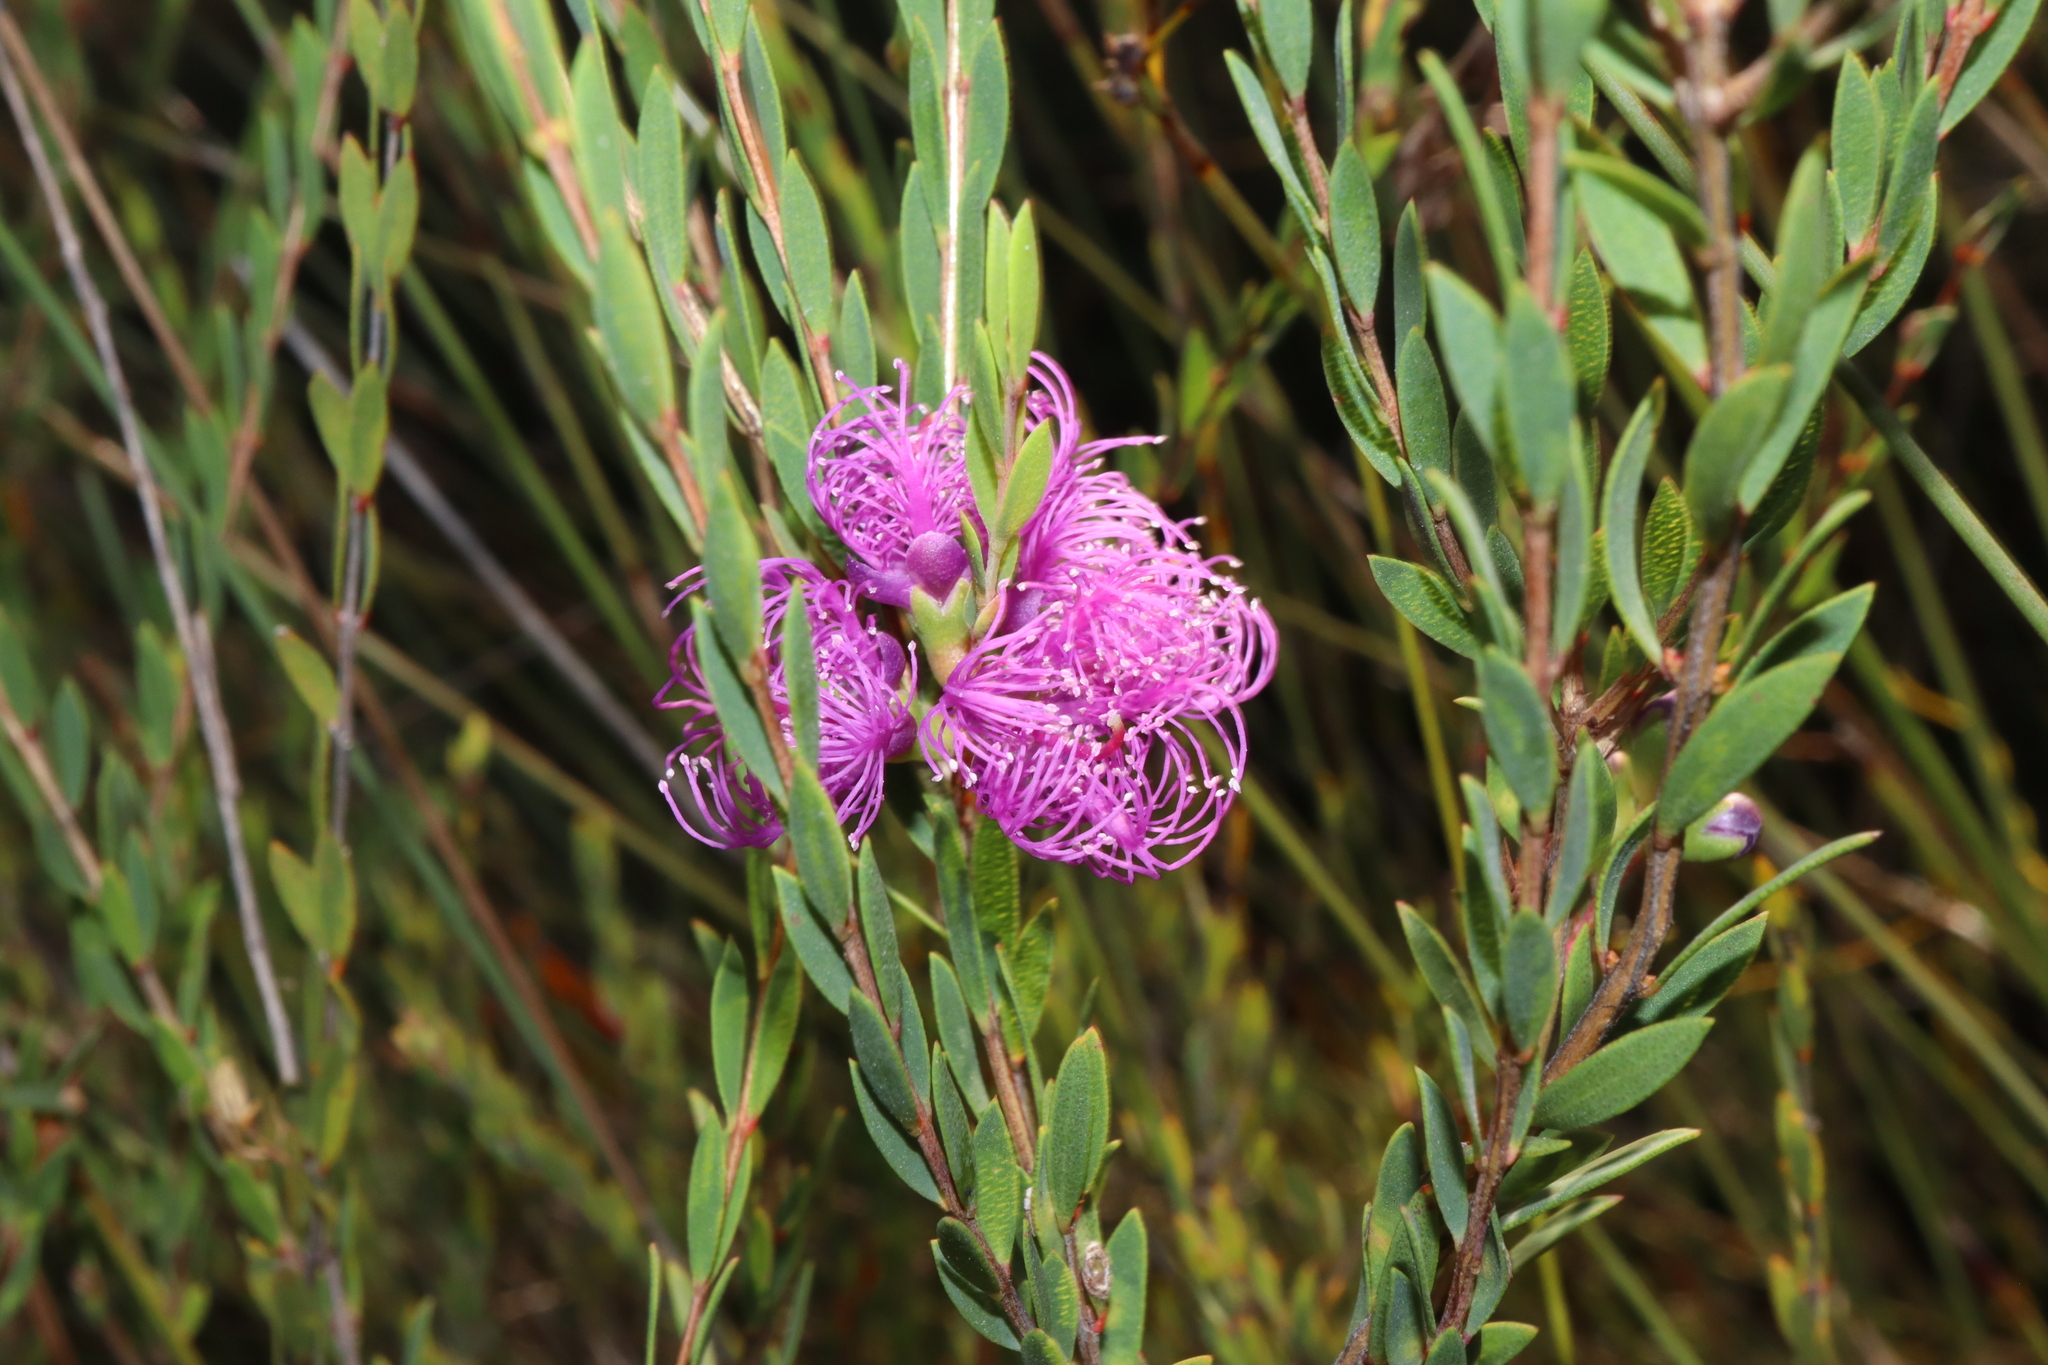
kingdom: Plantae
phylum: Tracheophyta
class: Magnoliopsida
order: Myrtales
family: Myrtaceae
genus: Melaleuca
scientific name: Melaleuca thymifolia
